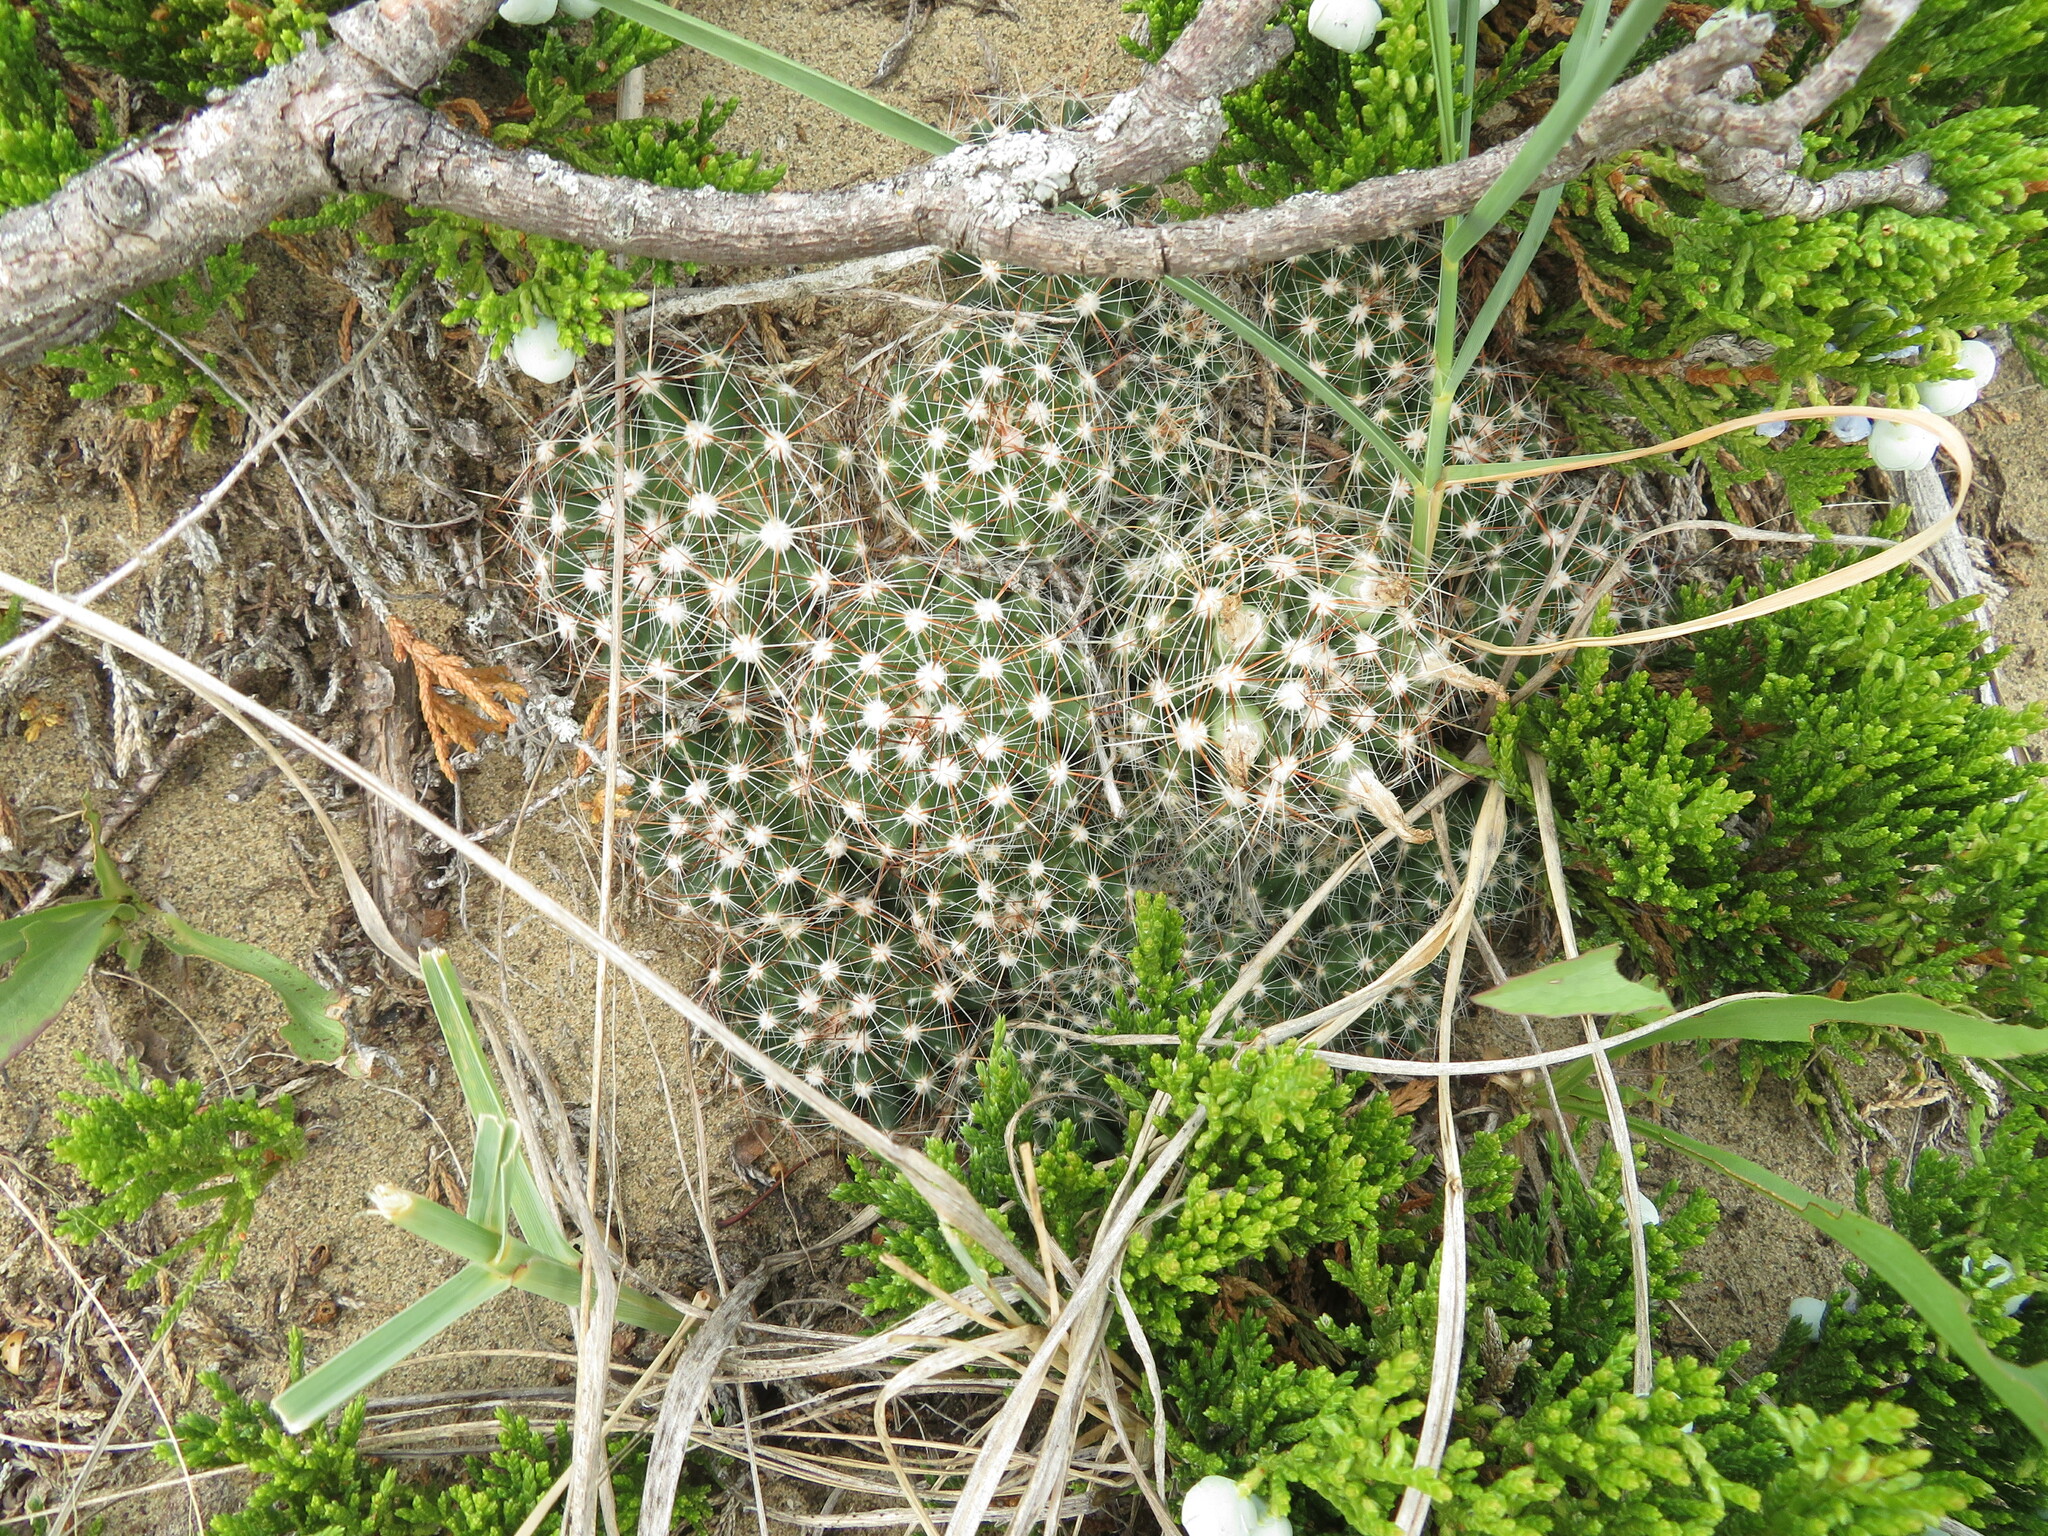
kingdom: Plantae
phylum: Tracheophyta
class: Magnoliopsida
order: Caryophyllales
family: Cactaceae
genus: Pelecyphora
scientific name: Pelecyphora vivipara
